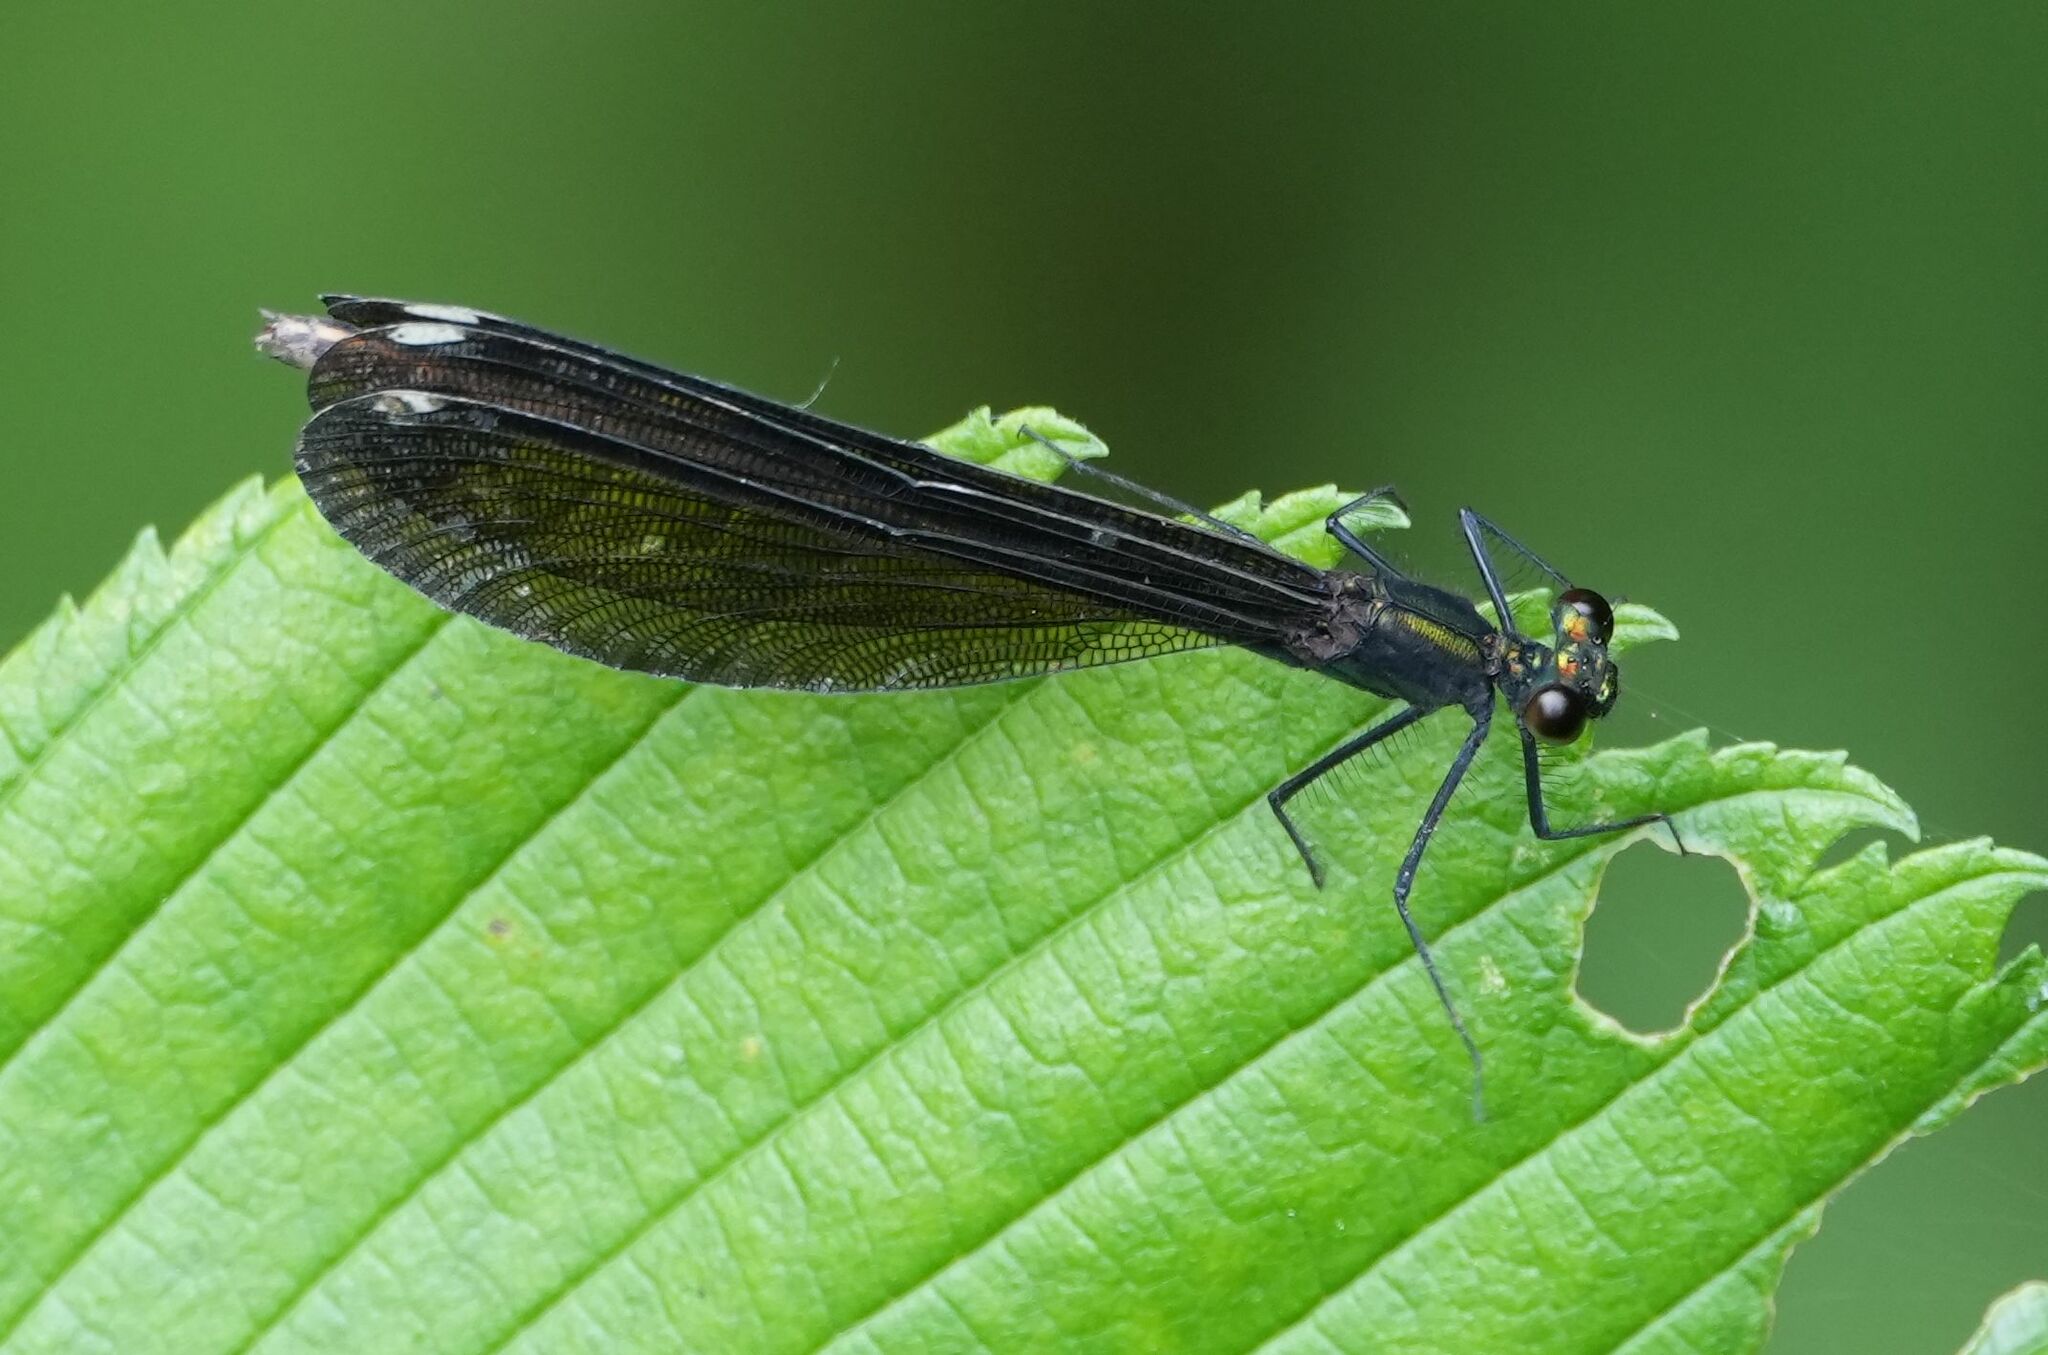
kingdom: Animalia
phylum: Arthropoda
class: Insecta
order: Odonata
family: Calopterygidae
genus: Calopteryx
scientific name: Calopteryx maculata
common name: Ebony jewelwing
